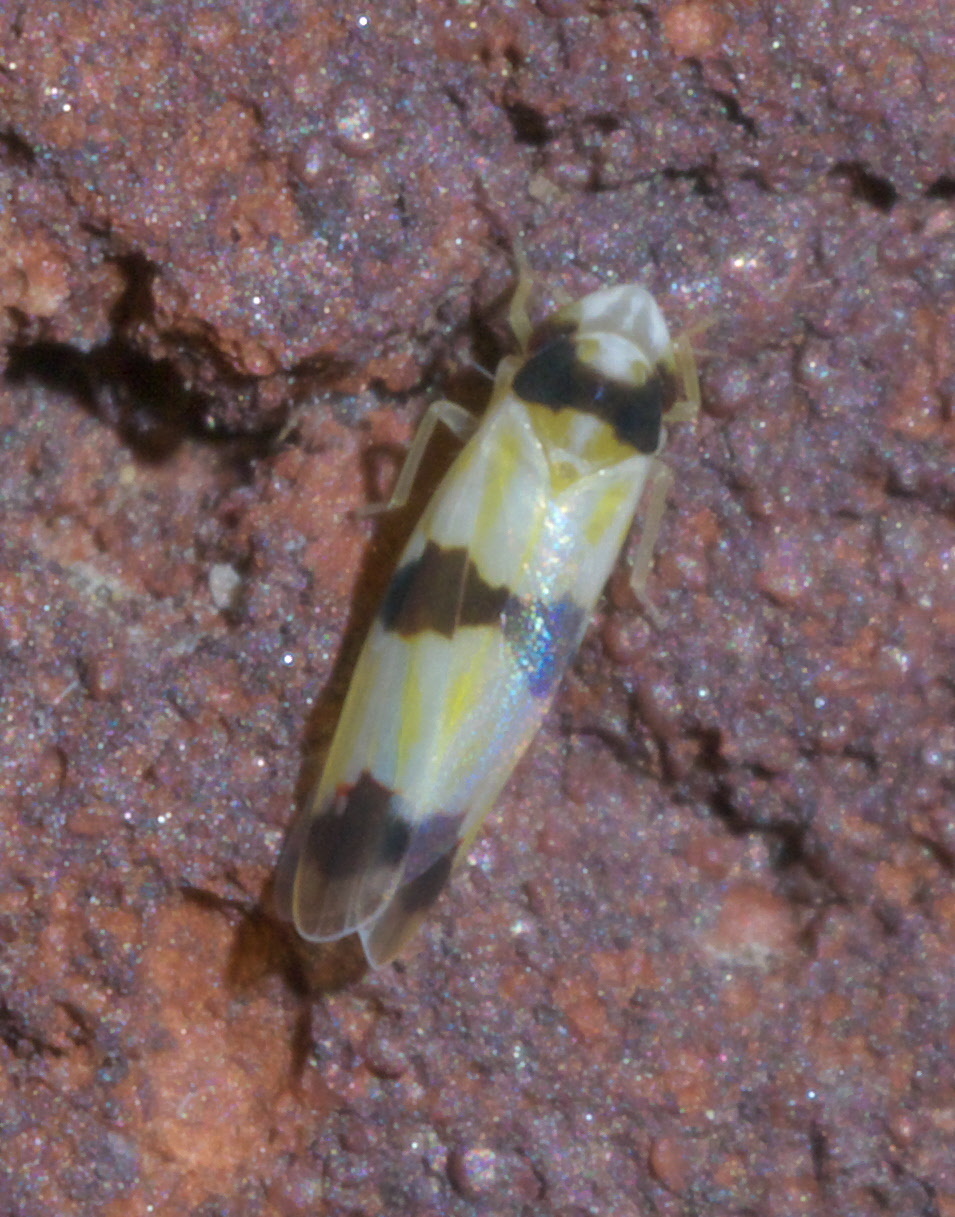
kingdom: Animalia
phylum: Arthropoda
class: Insecta
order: Hemiptera
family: Cicadellidae
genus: Erythroneura
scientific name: Erythroneura cymbium
